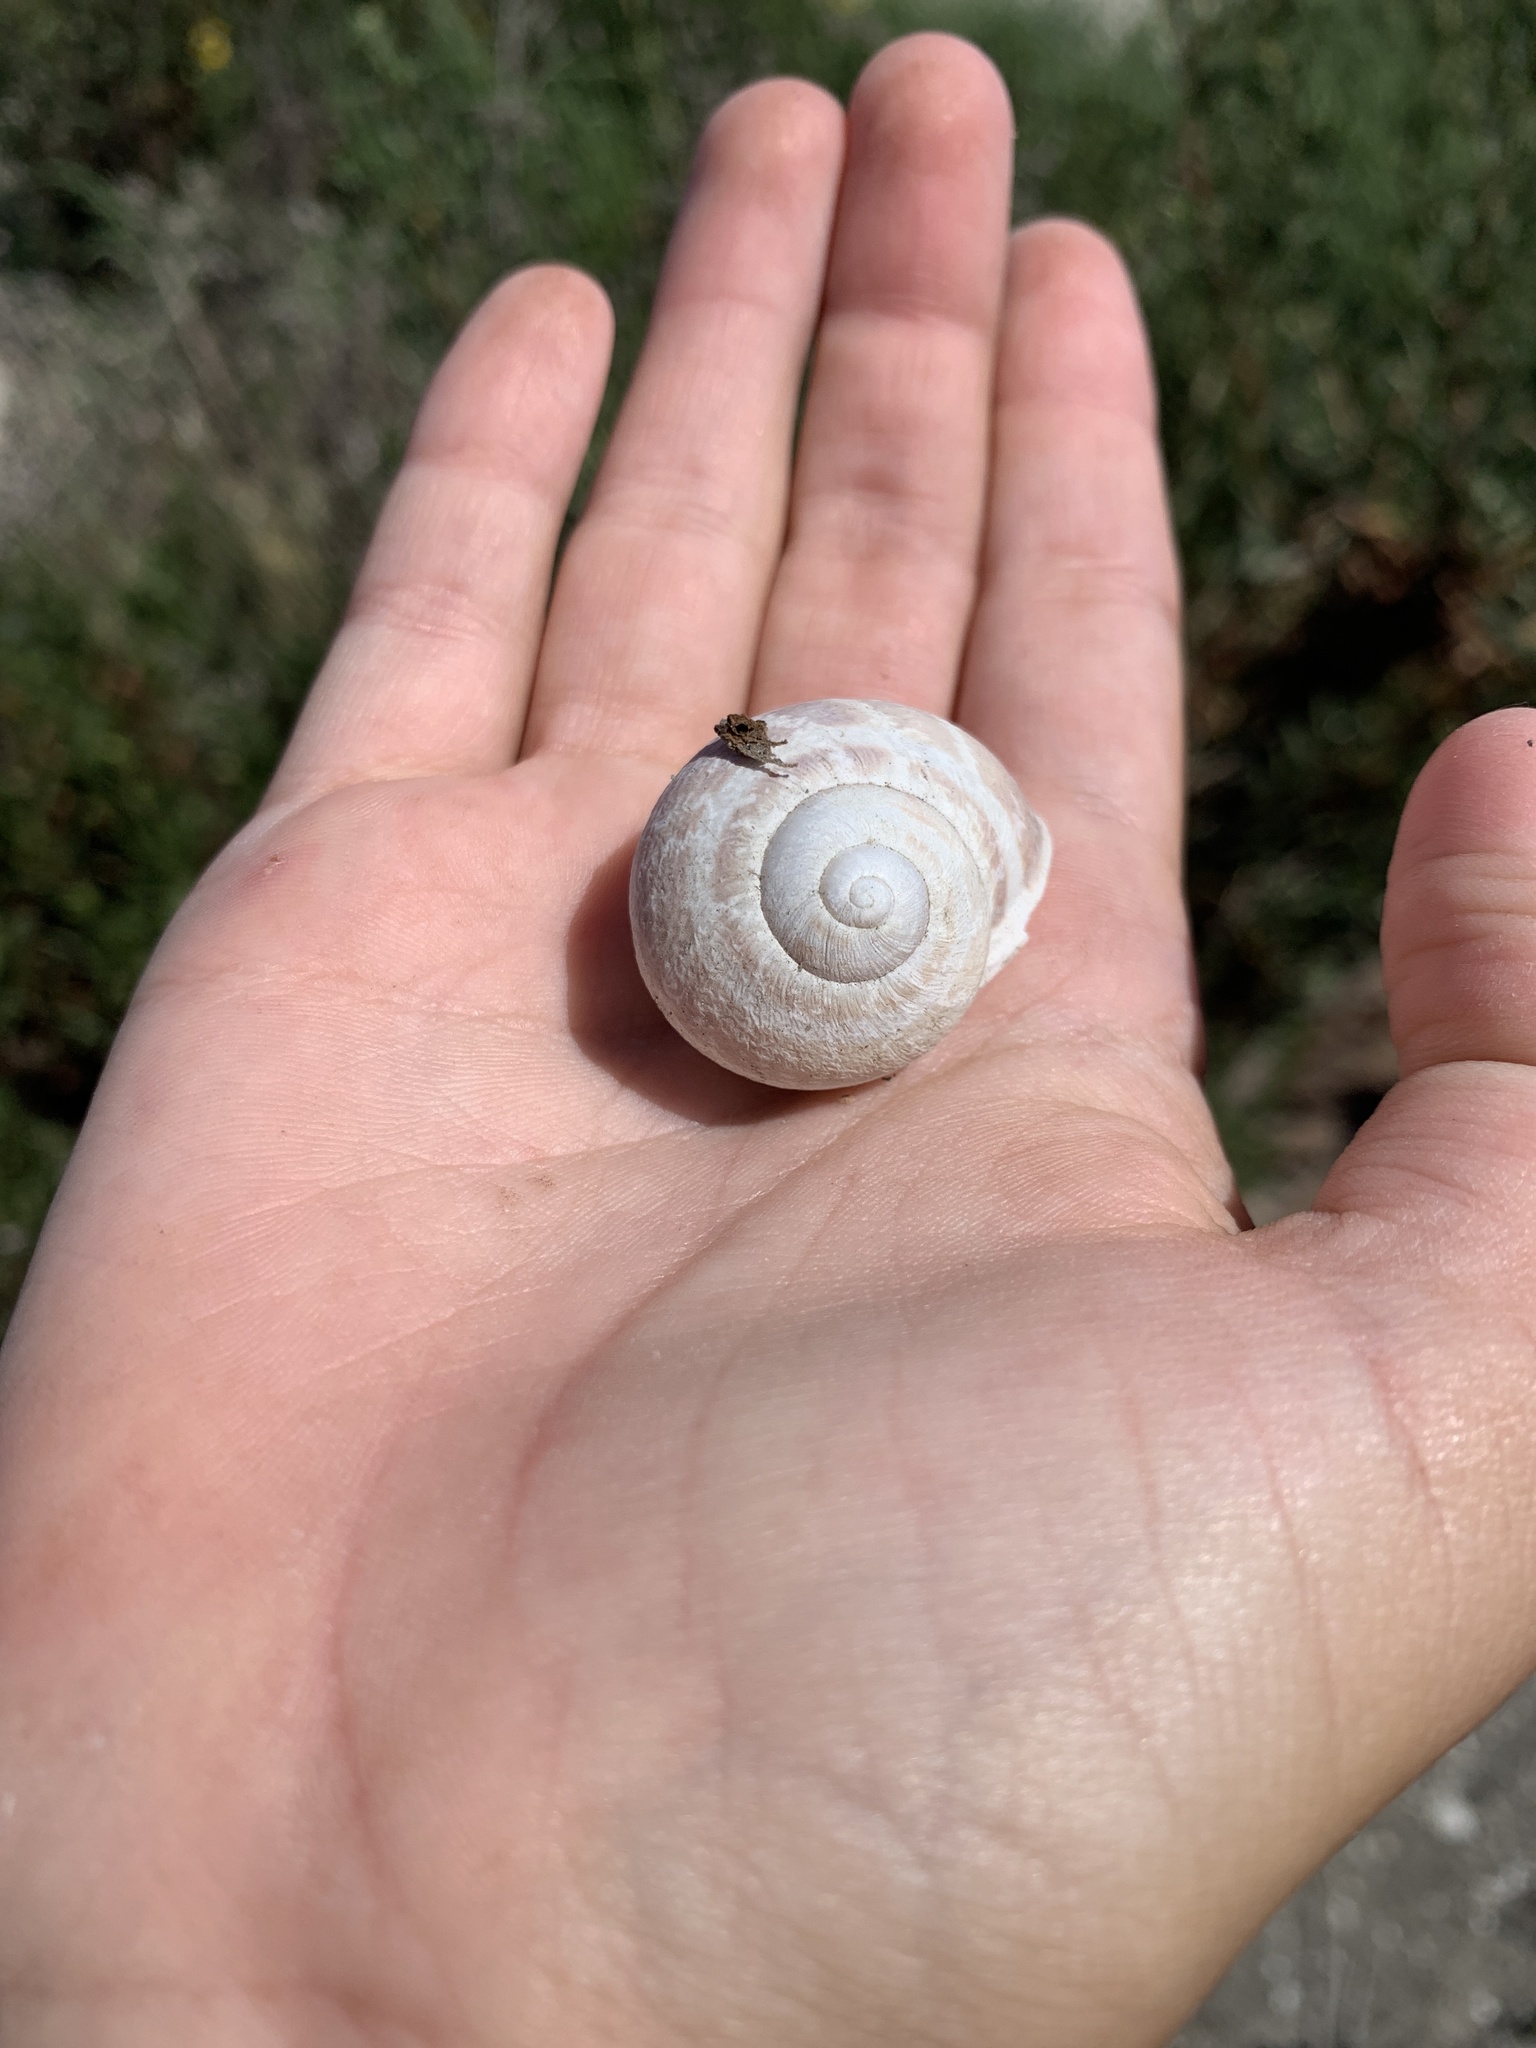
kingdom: Animalia
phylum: Mollusca
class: Gastropoda
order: Stylommatophora
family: Helicidae
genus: Cornu
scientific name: Cornu aspersum
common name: Brown garden snail
